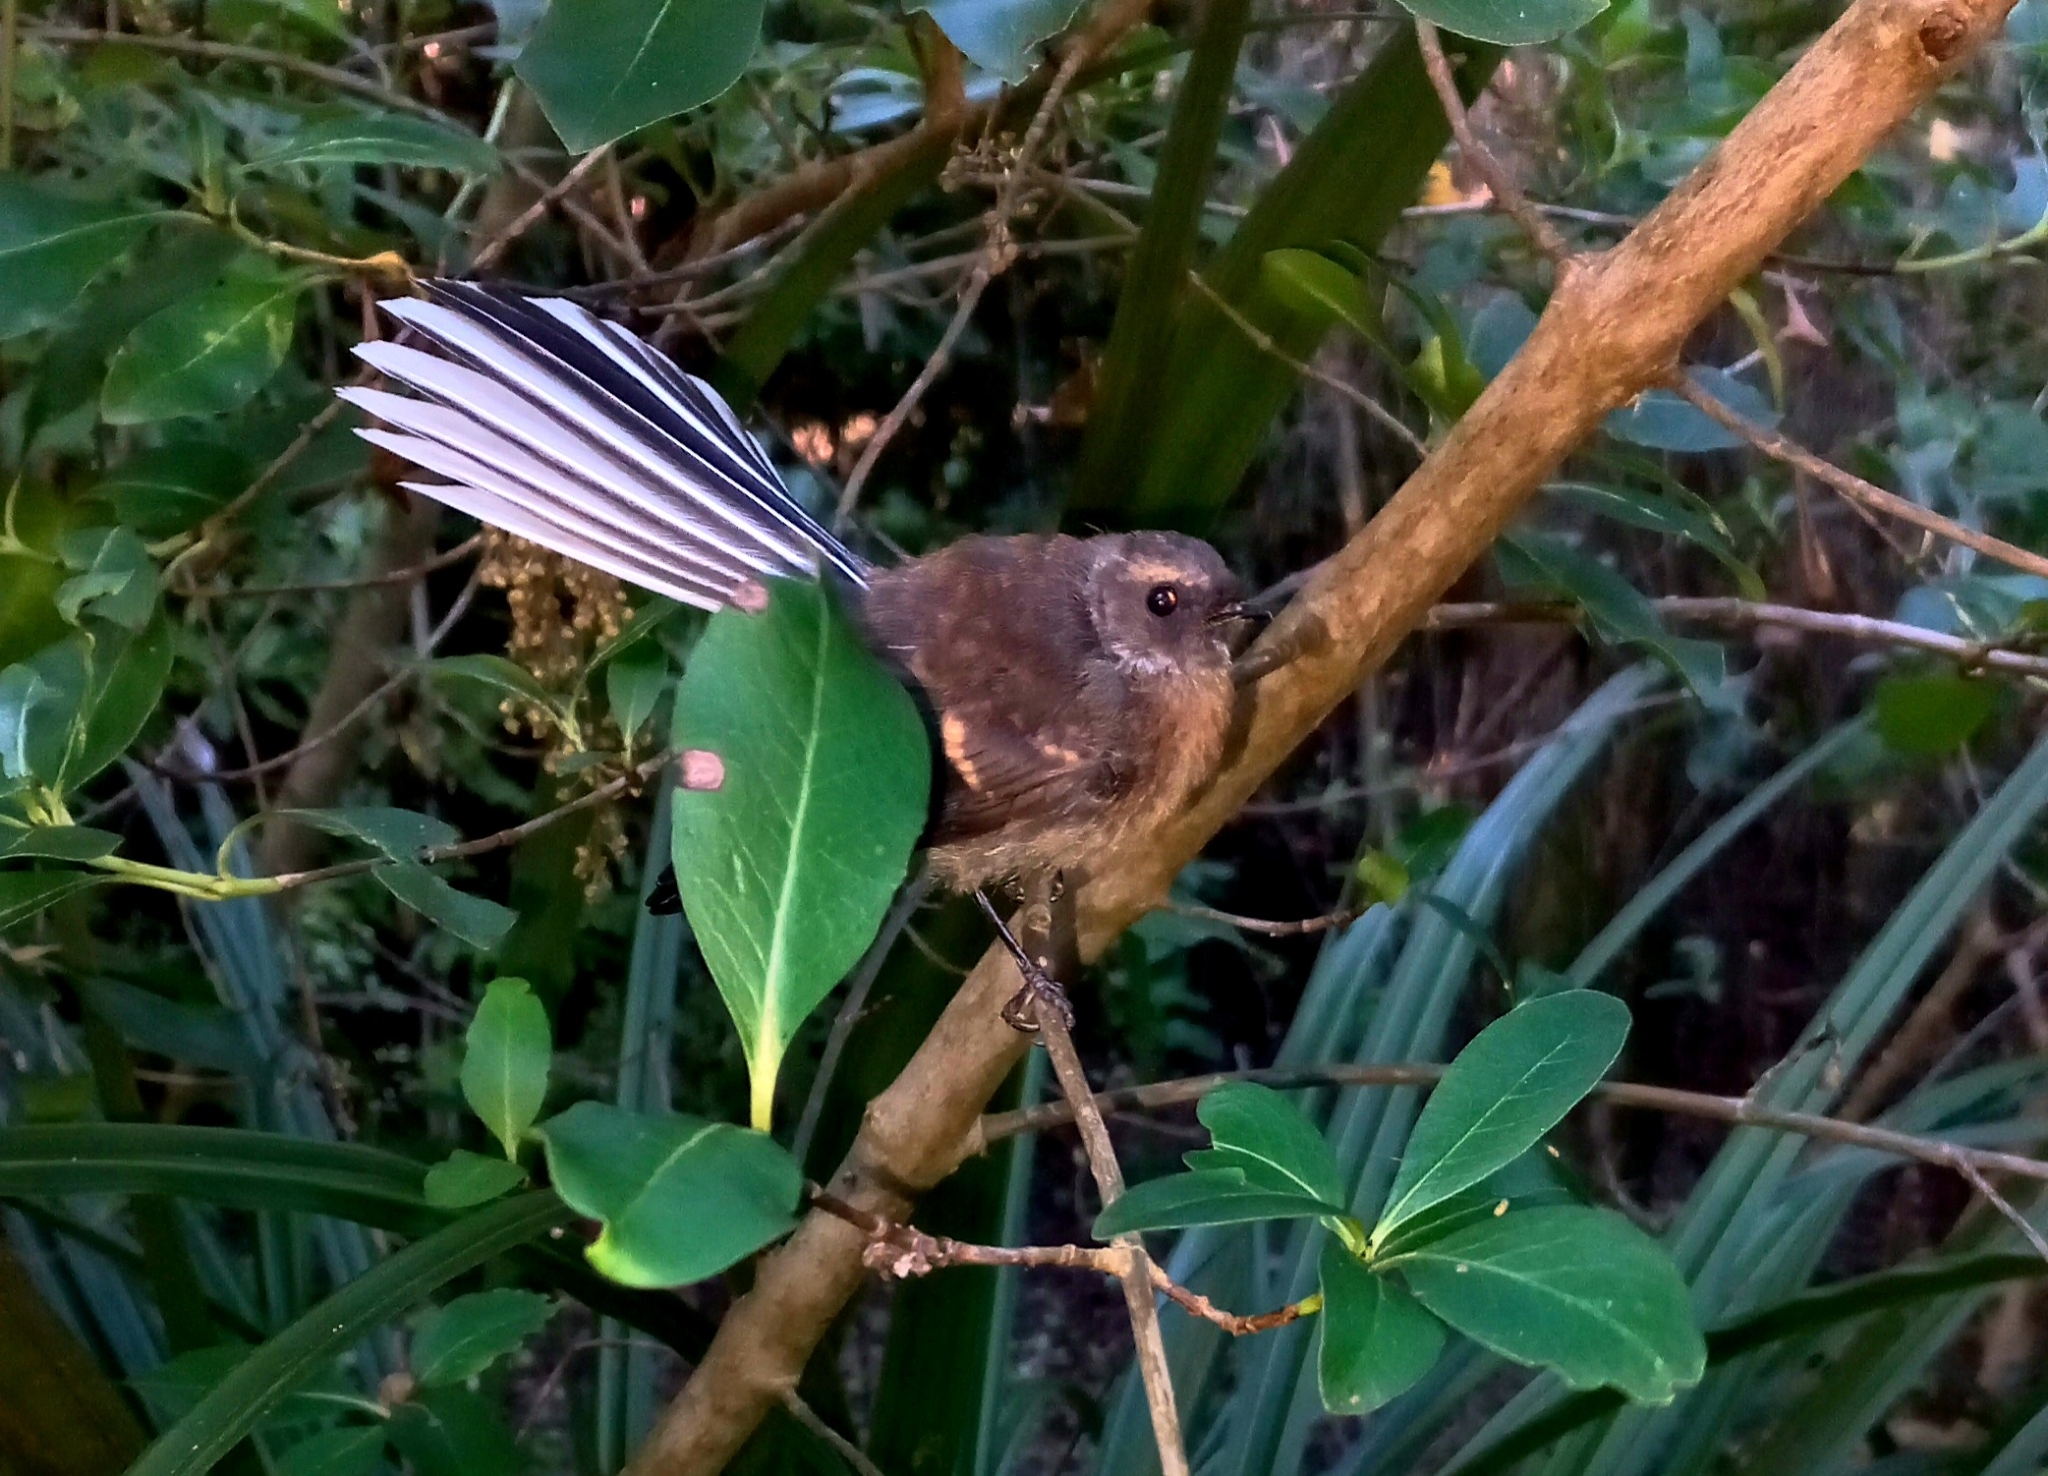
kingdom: Animalia
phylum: Chordata
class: Aves
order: Passeriformes
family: Rhipiduridae
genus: Rhipidura
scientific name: Rhipidura fuliginosa
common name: New zealand fantail
